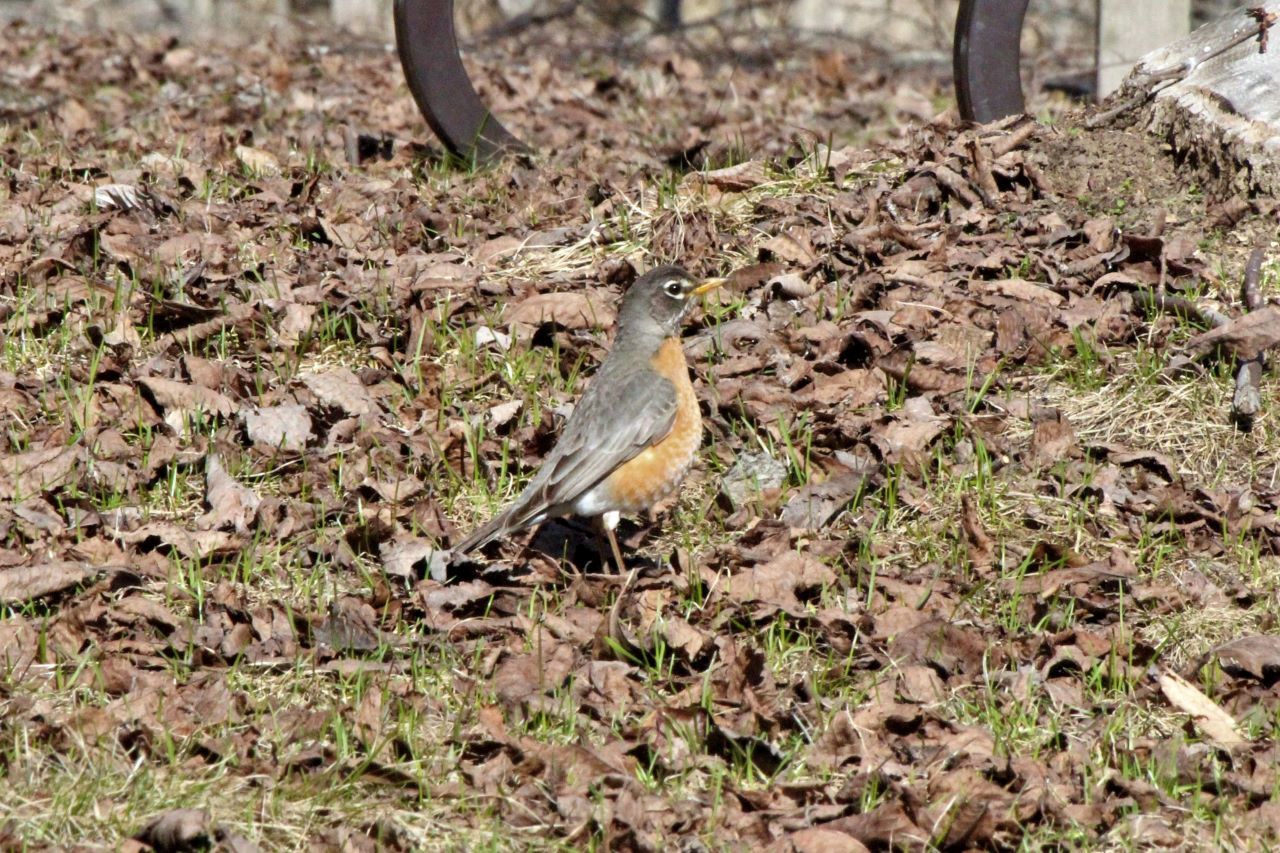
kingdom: Animalia
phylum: Chordata
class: Aves
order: Passeriformes
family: Turdidae
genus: Turdus
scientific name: Turdus migratorius
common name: American robin
